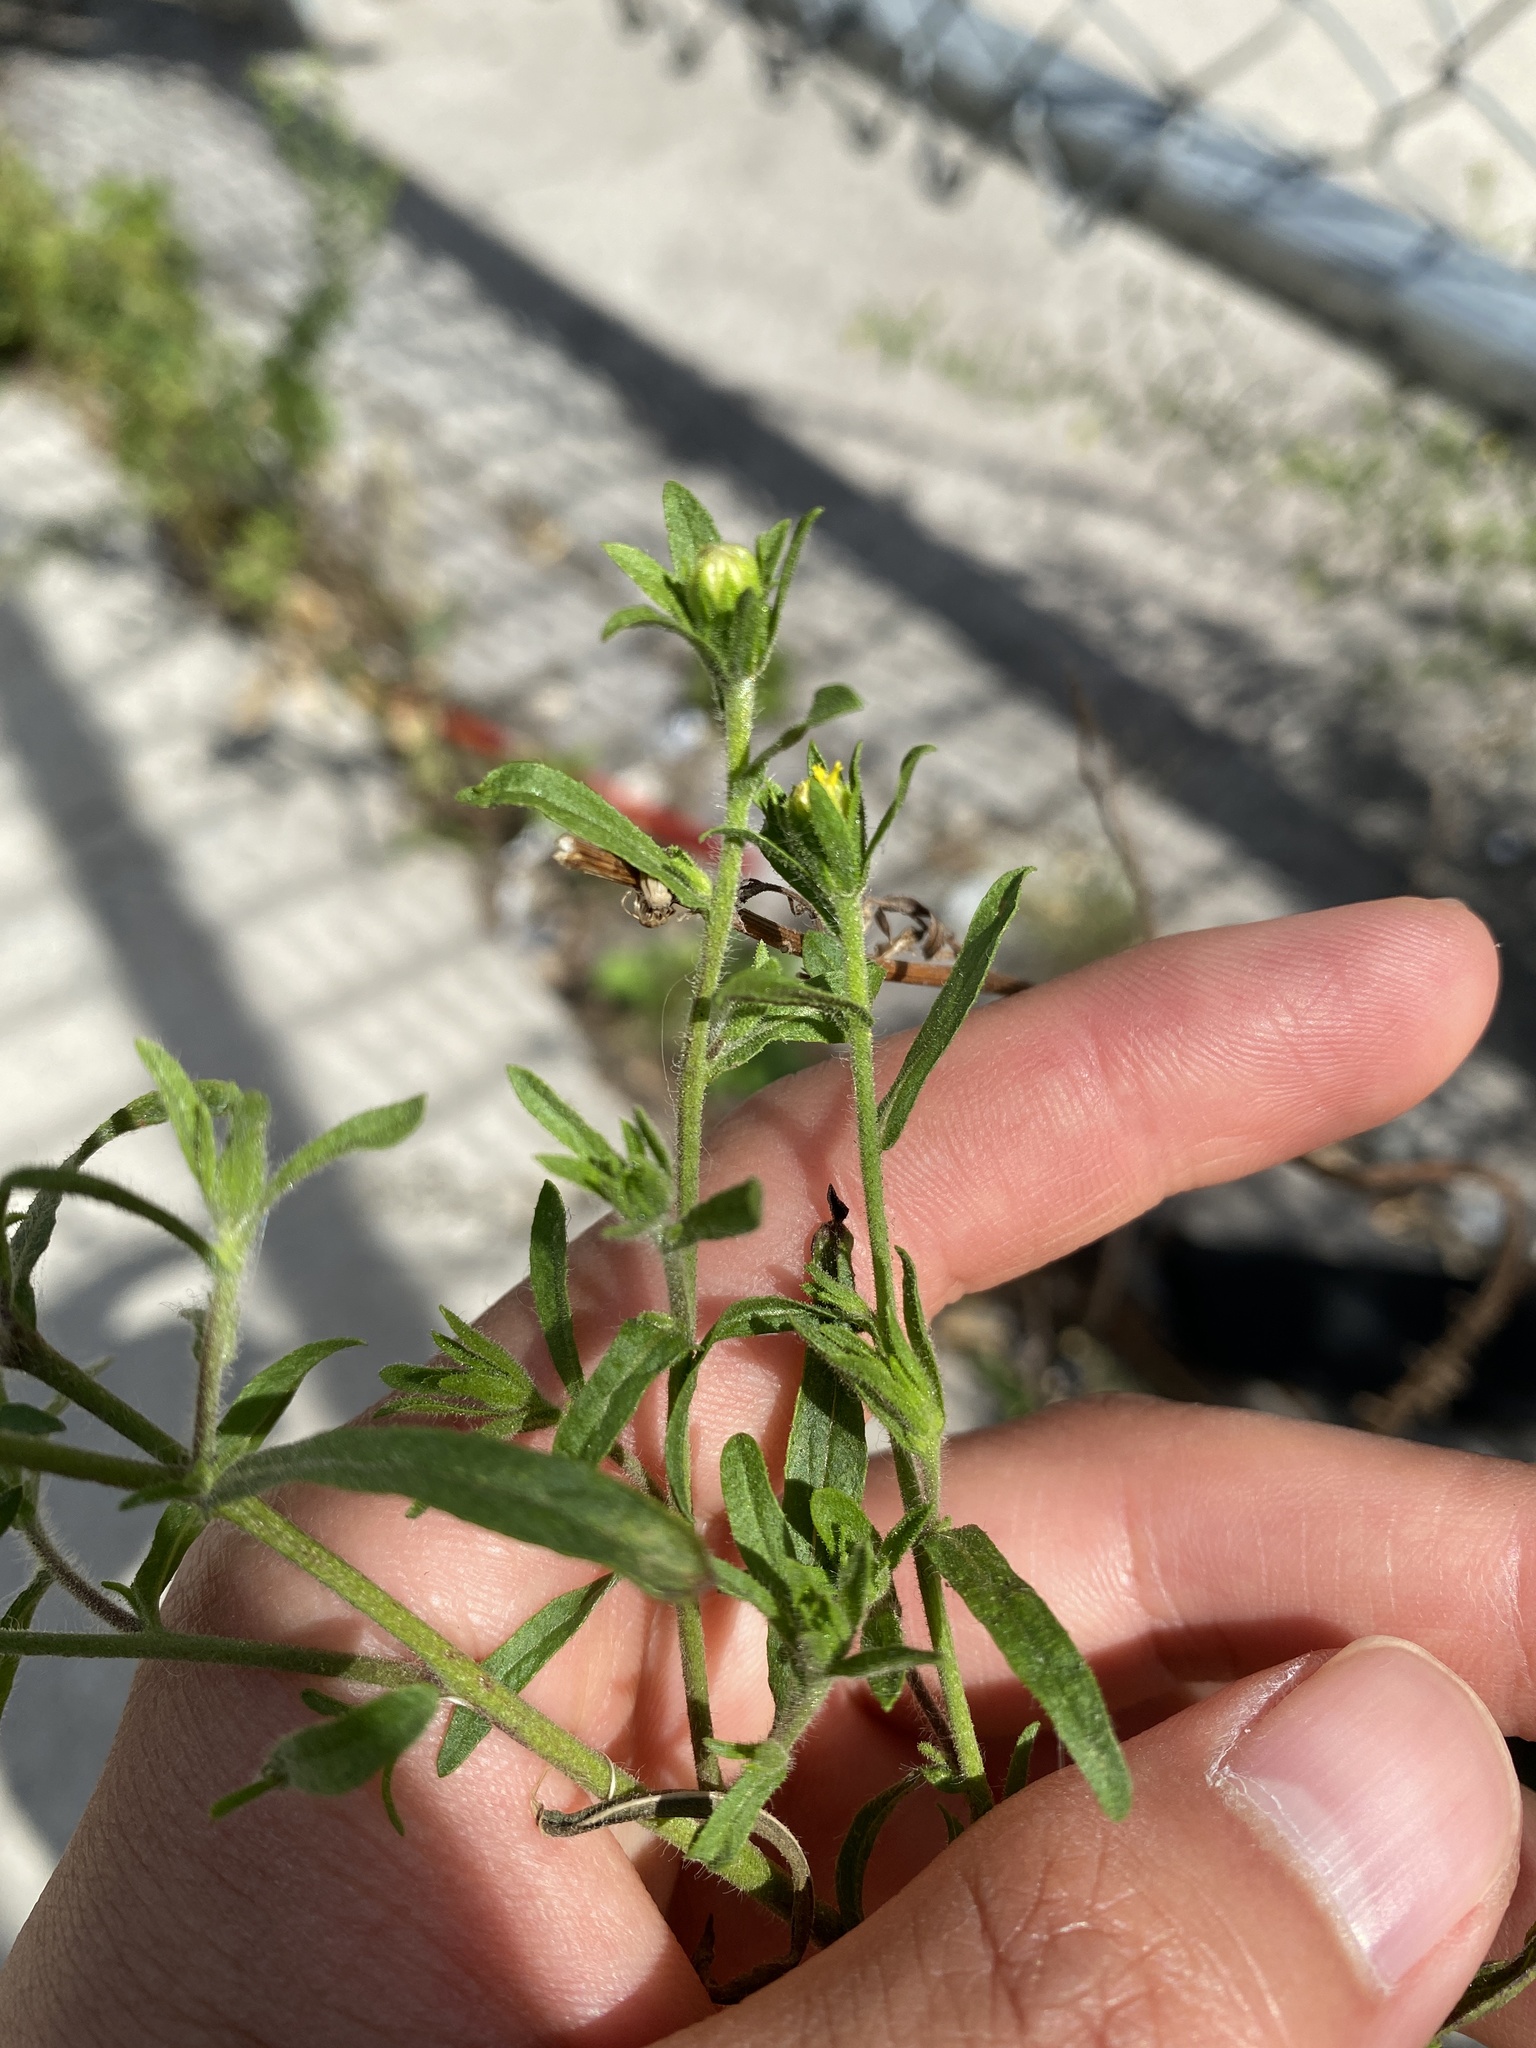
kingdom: Plantae
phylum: Tracheophyta
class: Magnoliopsida
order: Asterales
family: Asteraceae
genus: Dittrichia
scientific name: Dittrichia graveolens
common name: Stinking fleabane
